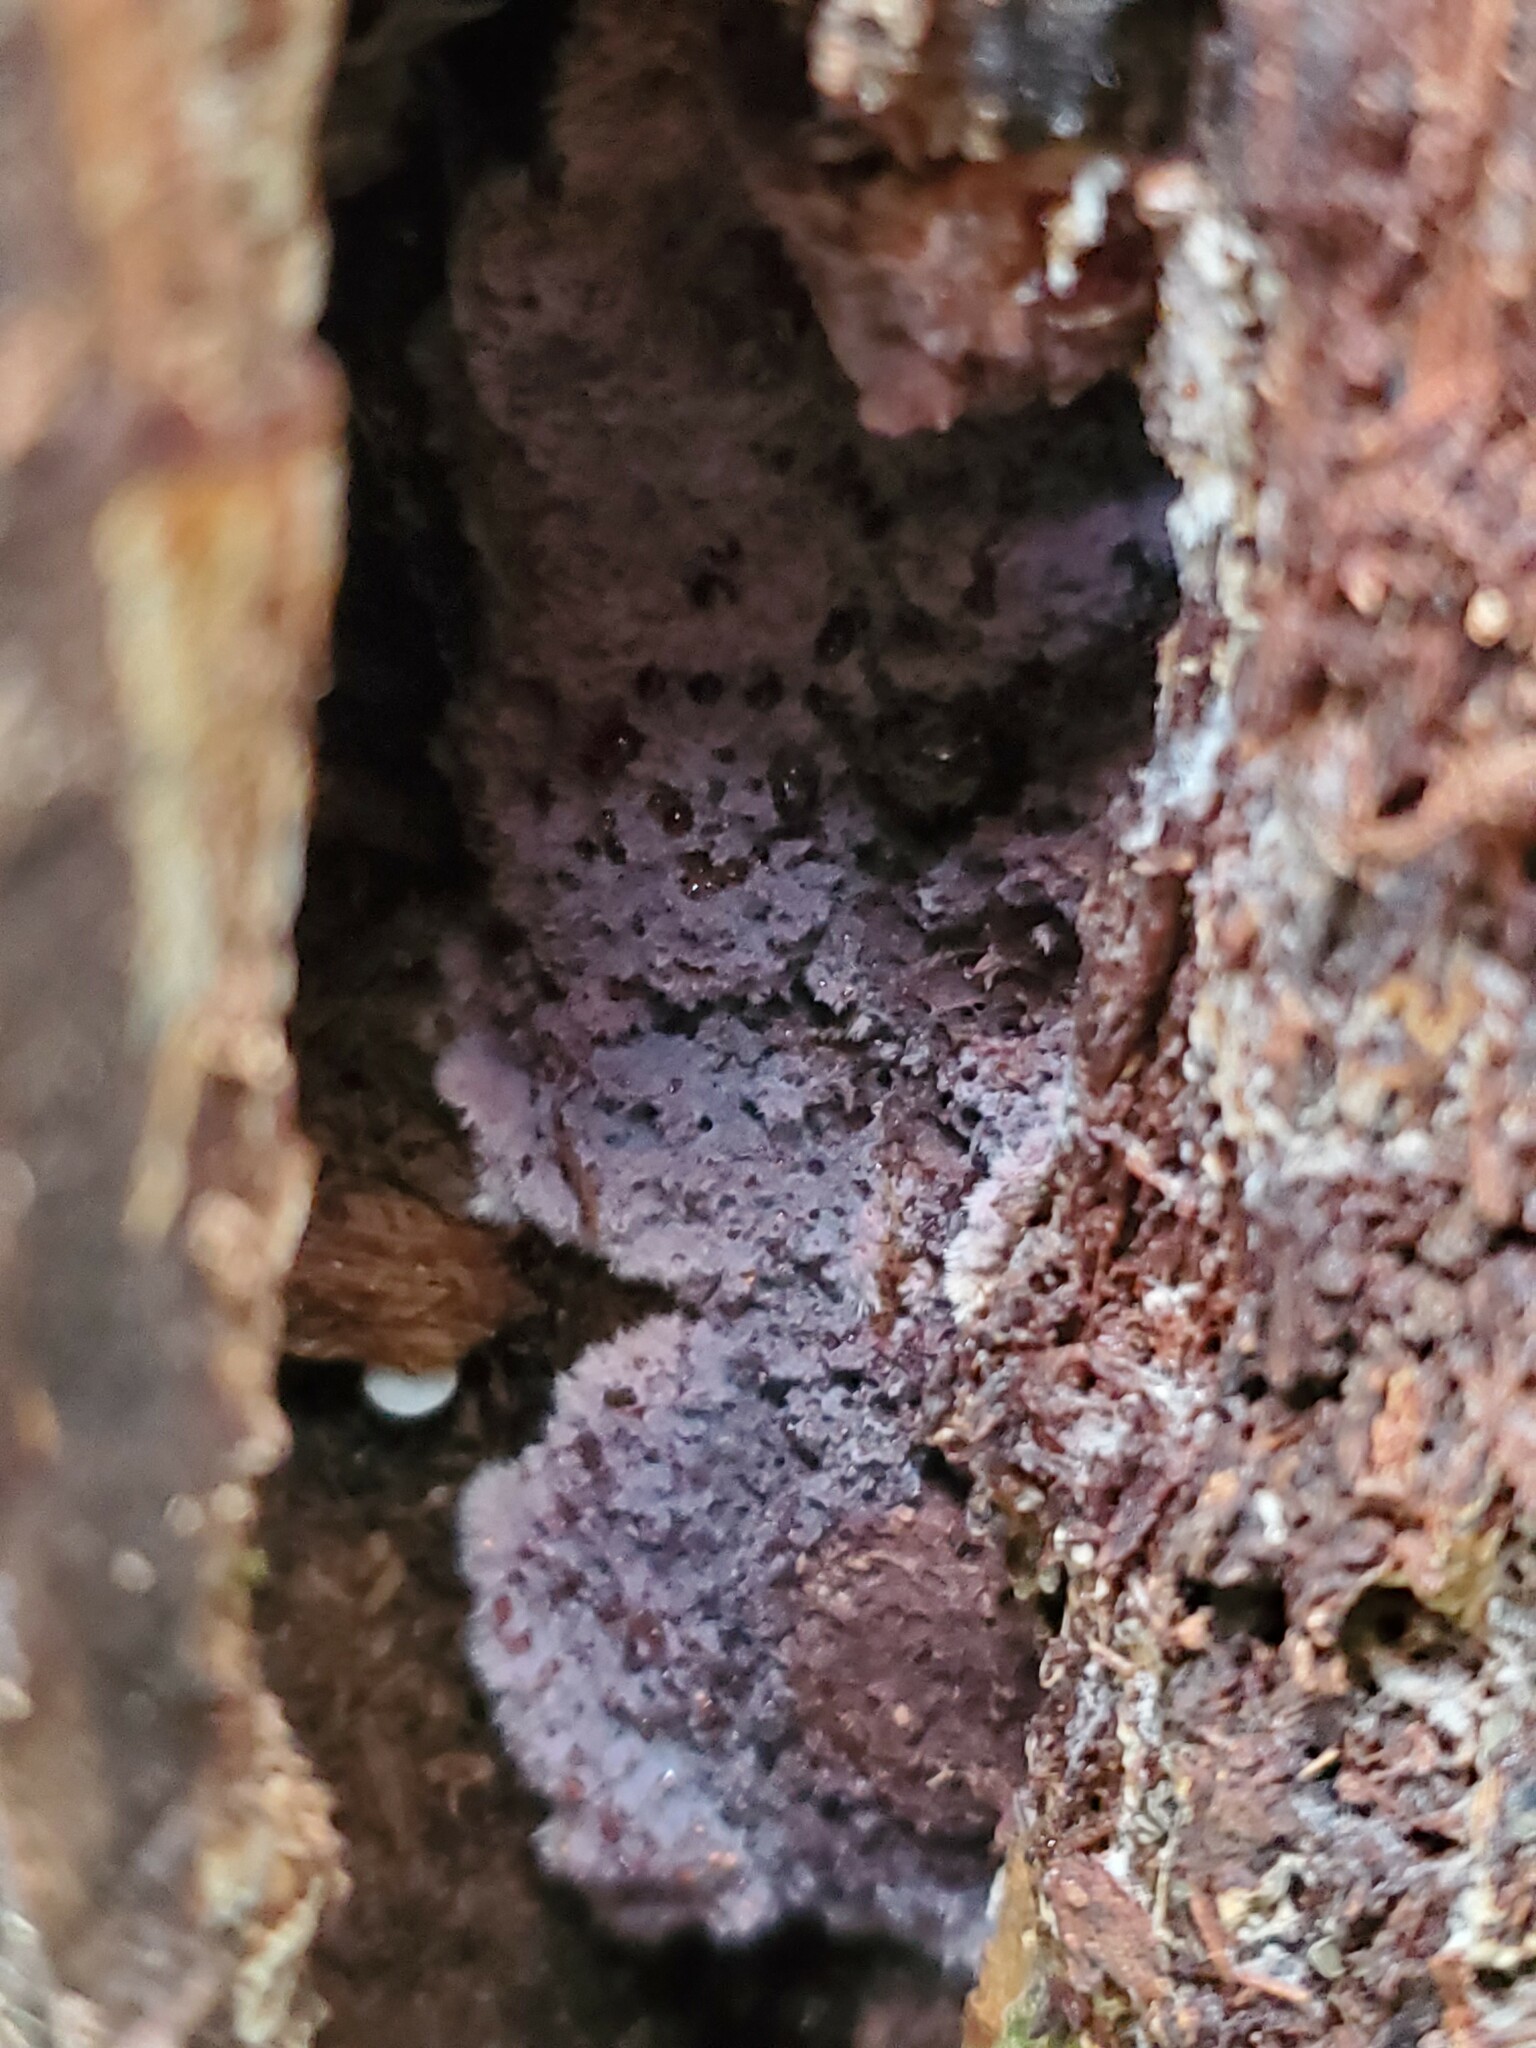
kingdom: Fungi
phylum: Basidiomycota
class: Agaricomycetes
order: Corticiales
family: Punctulariaceae
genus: Punctularia
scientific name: Punctularia atropurpurascens
